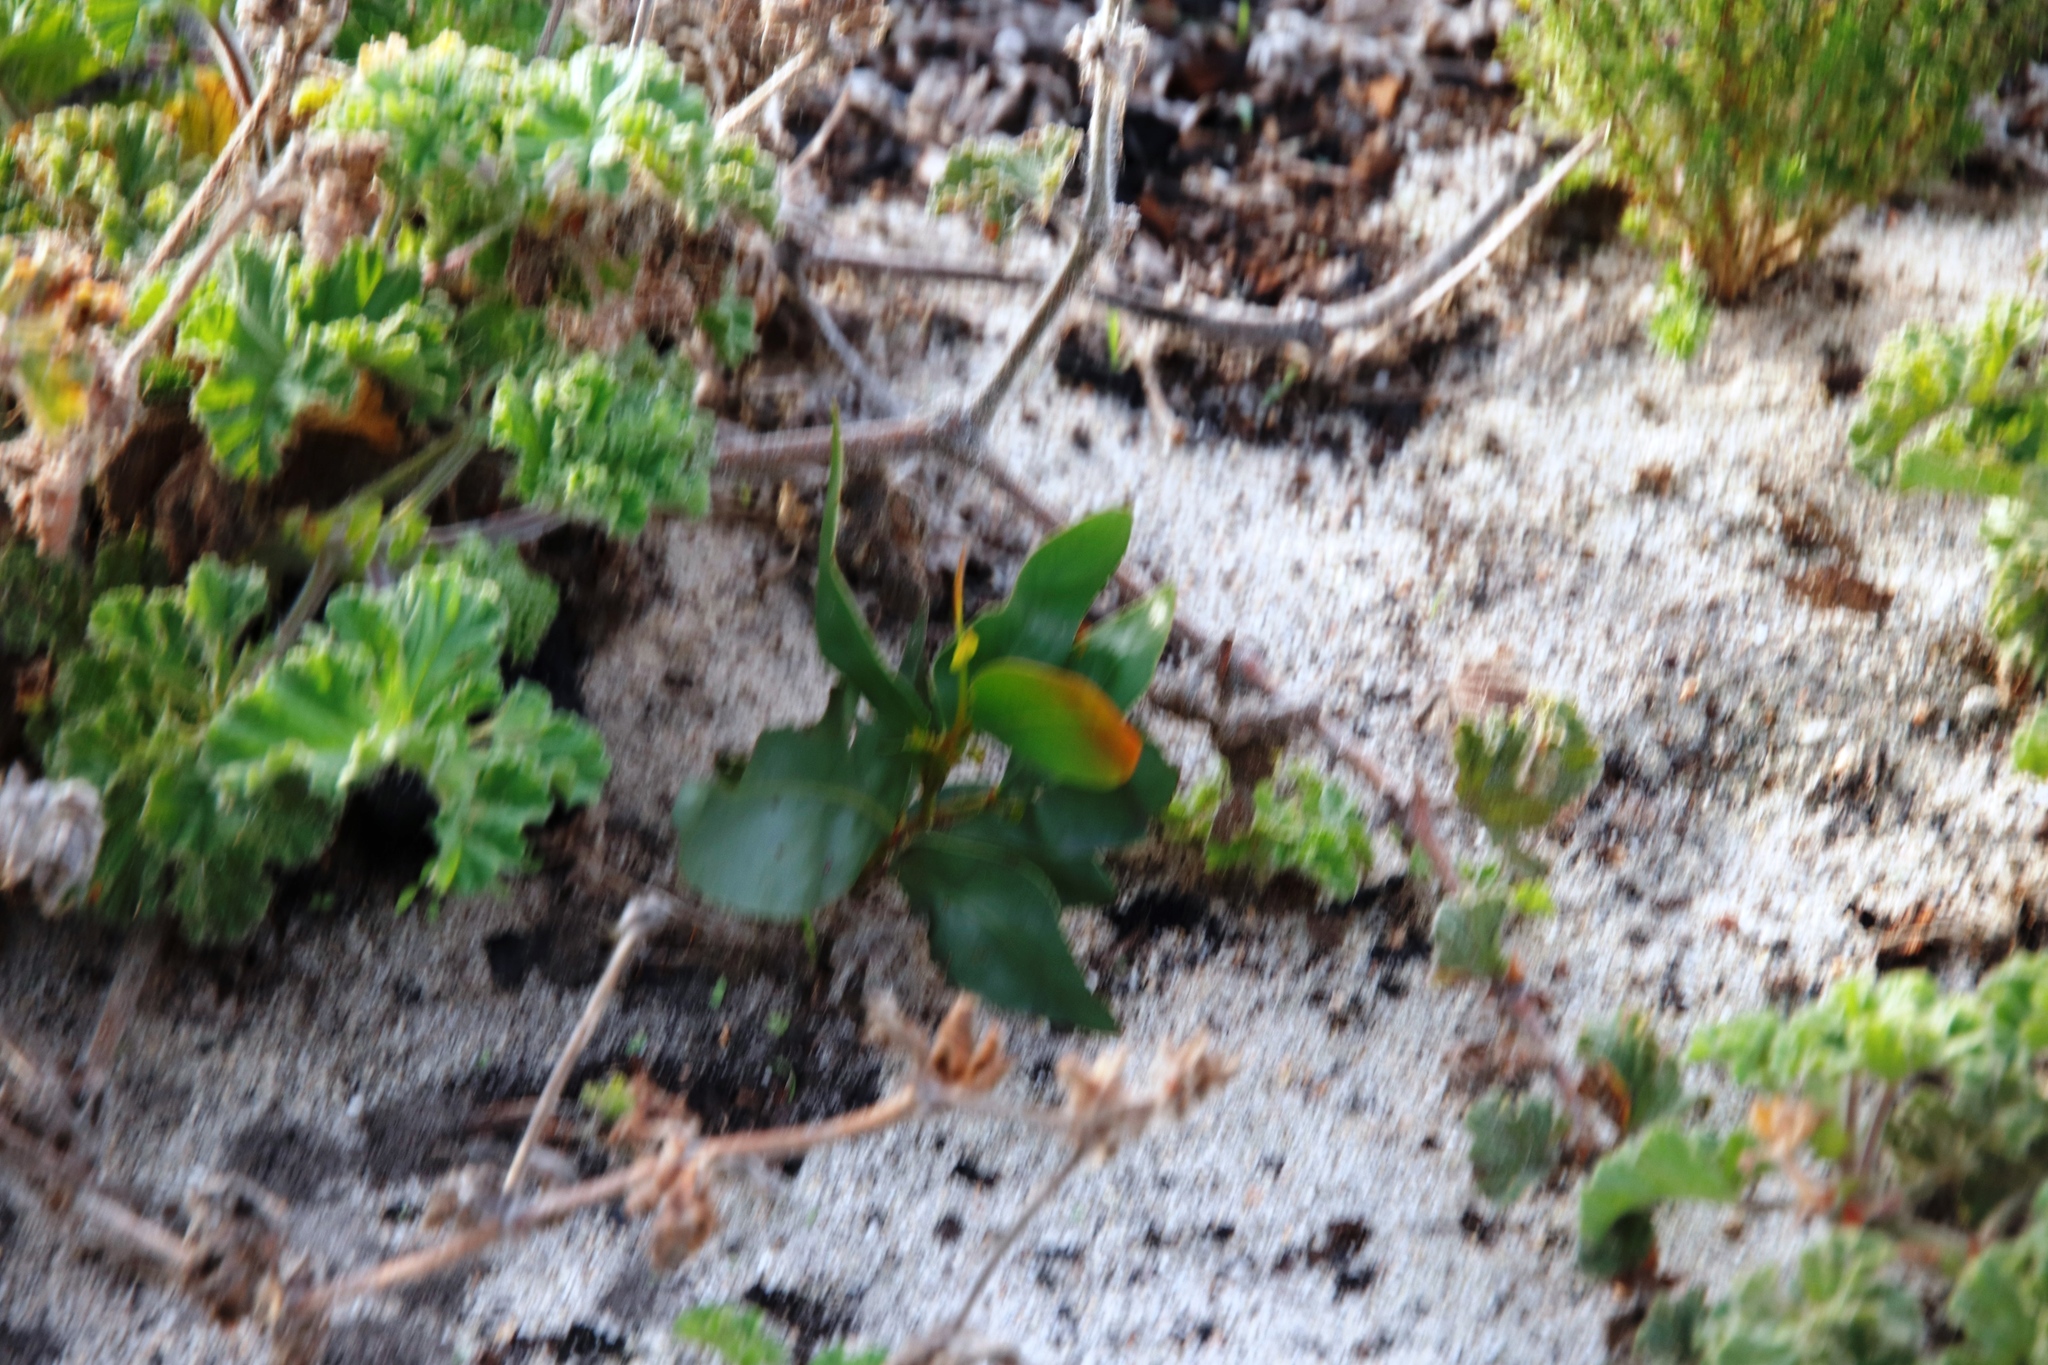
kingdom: Plantae
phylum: Tracheophyta
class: Magnoliopsida
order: Fabales
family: Fabaceae
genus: Acacia
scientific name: Acacia pycnantha
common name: Golden wattle
